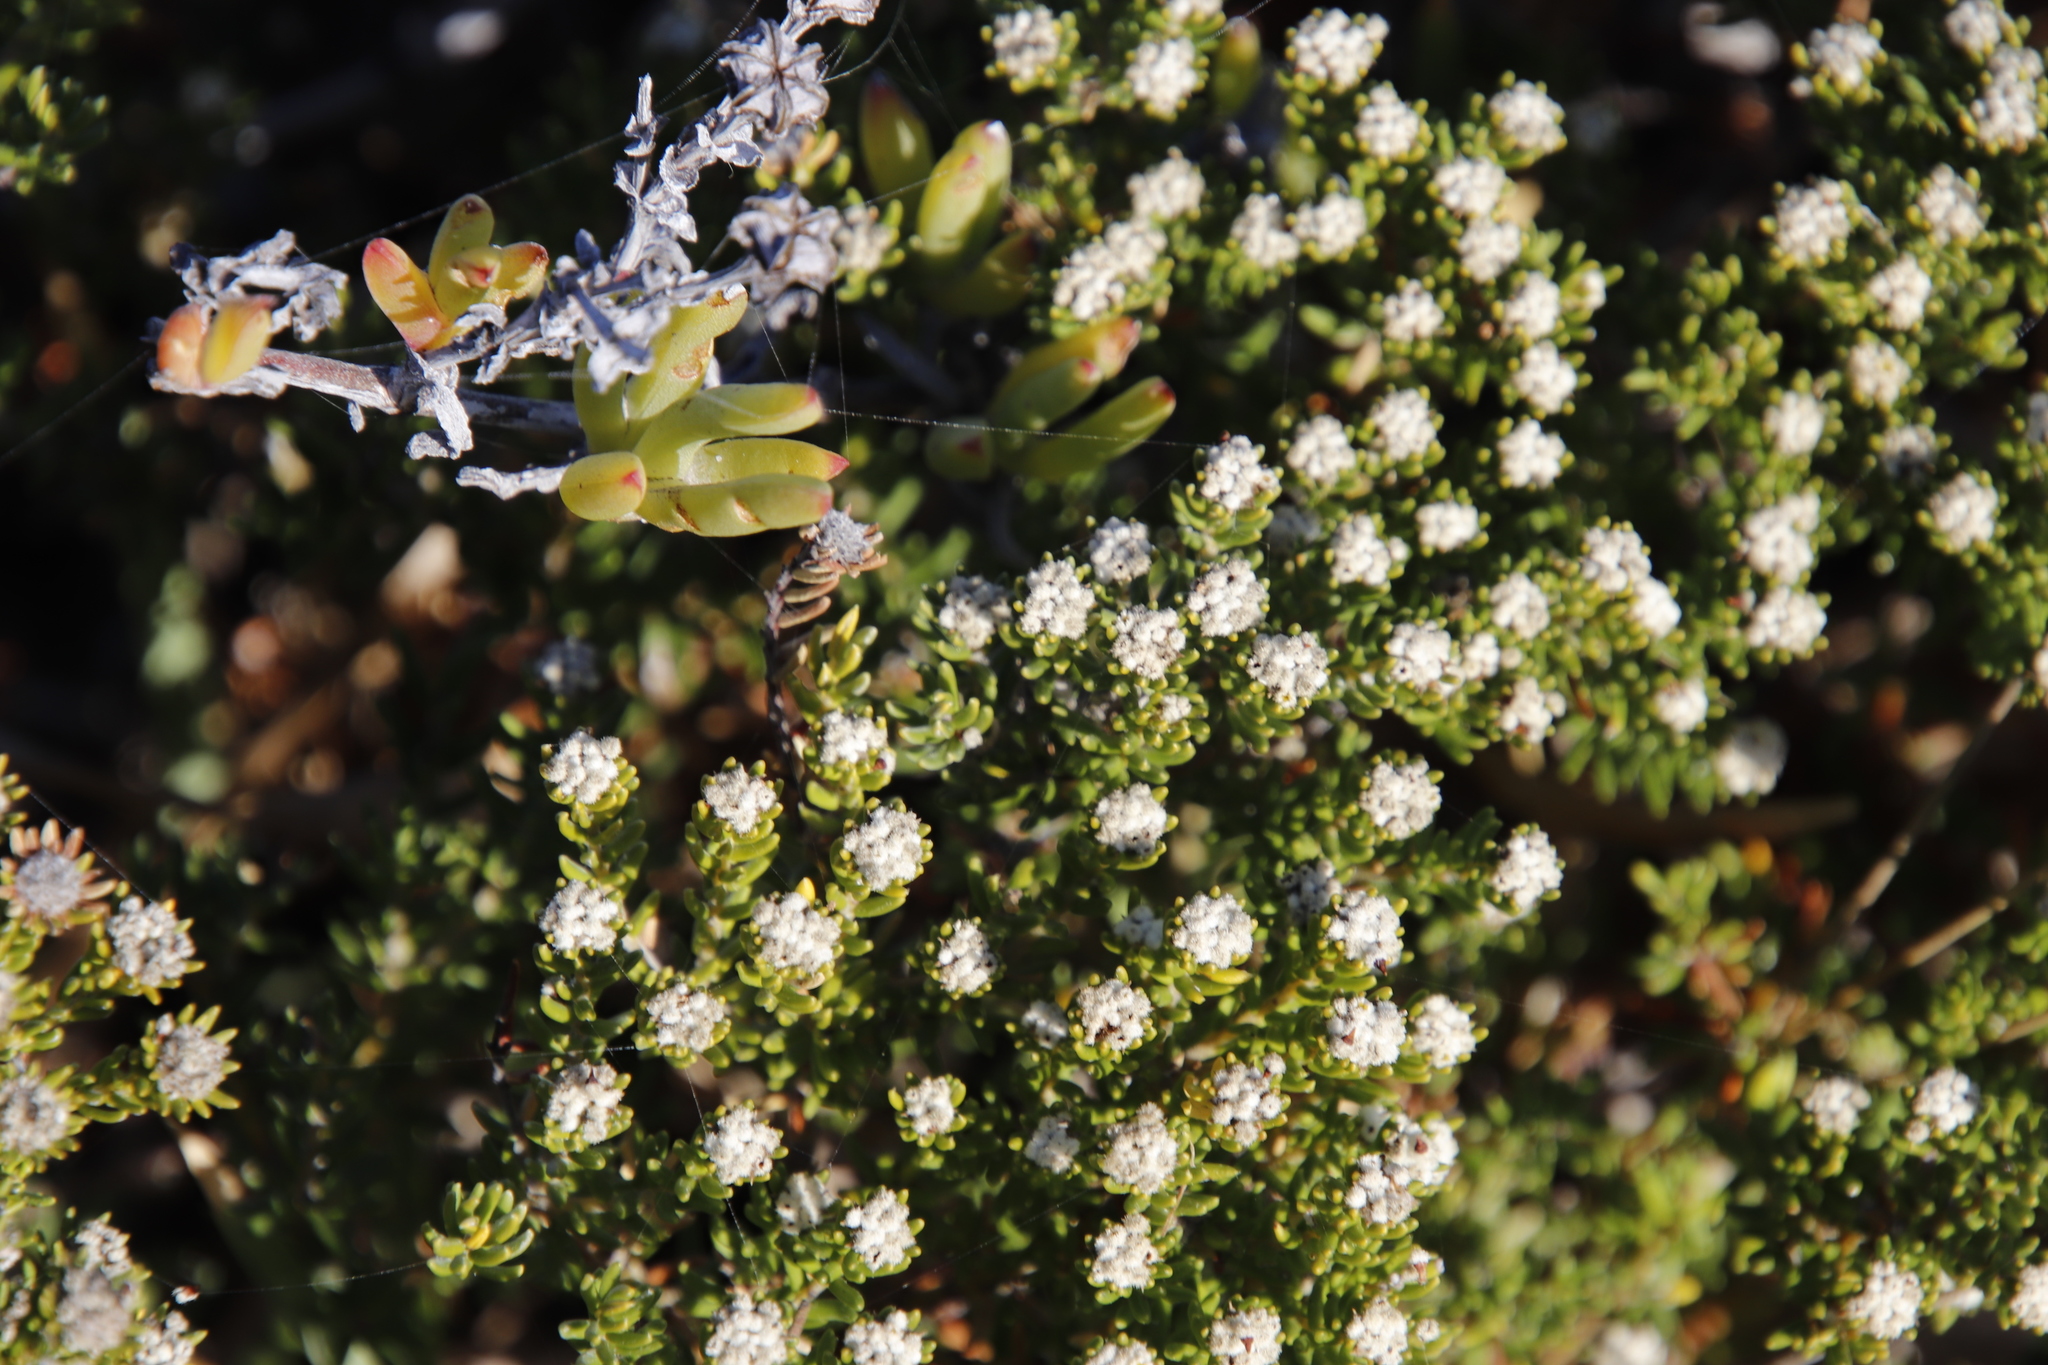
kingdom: Plantae
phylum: Tracheophyta
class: Magnoliopsida
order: Rosales
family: Rhamnaceae
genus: Phylica
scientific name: Phylica ericoides
